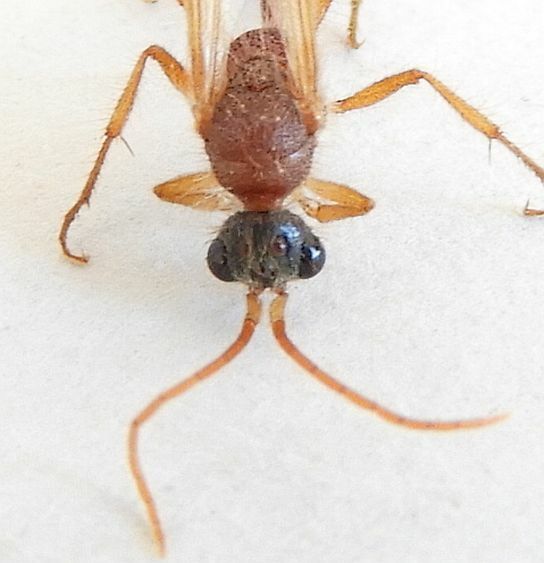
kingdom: Animalia
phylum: Arthropoda
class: Insecta
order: Hymenoptera
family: Chyphotidae
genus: Chyphotes
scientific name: Chyphotes
